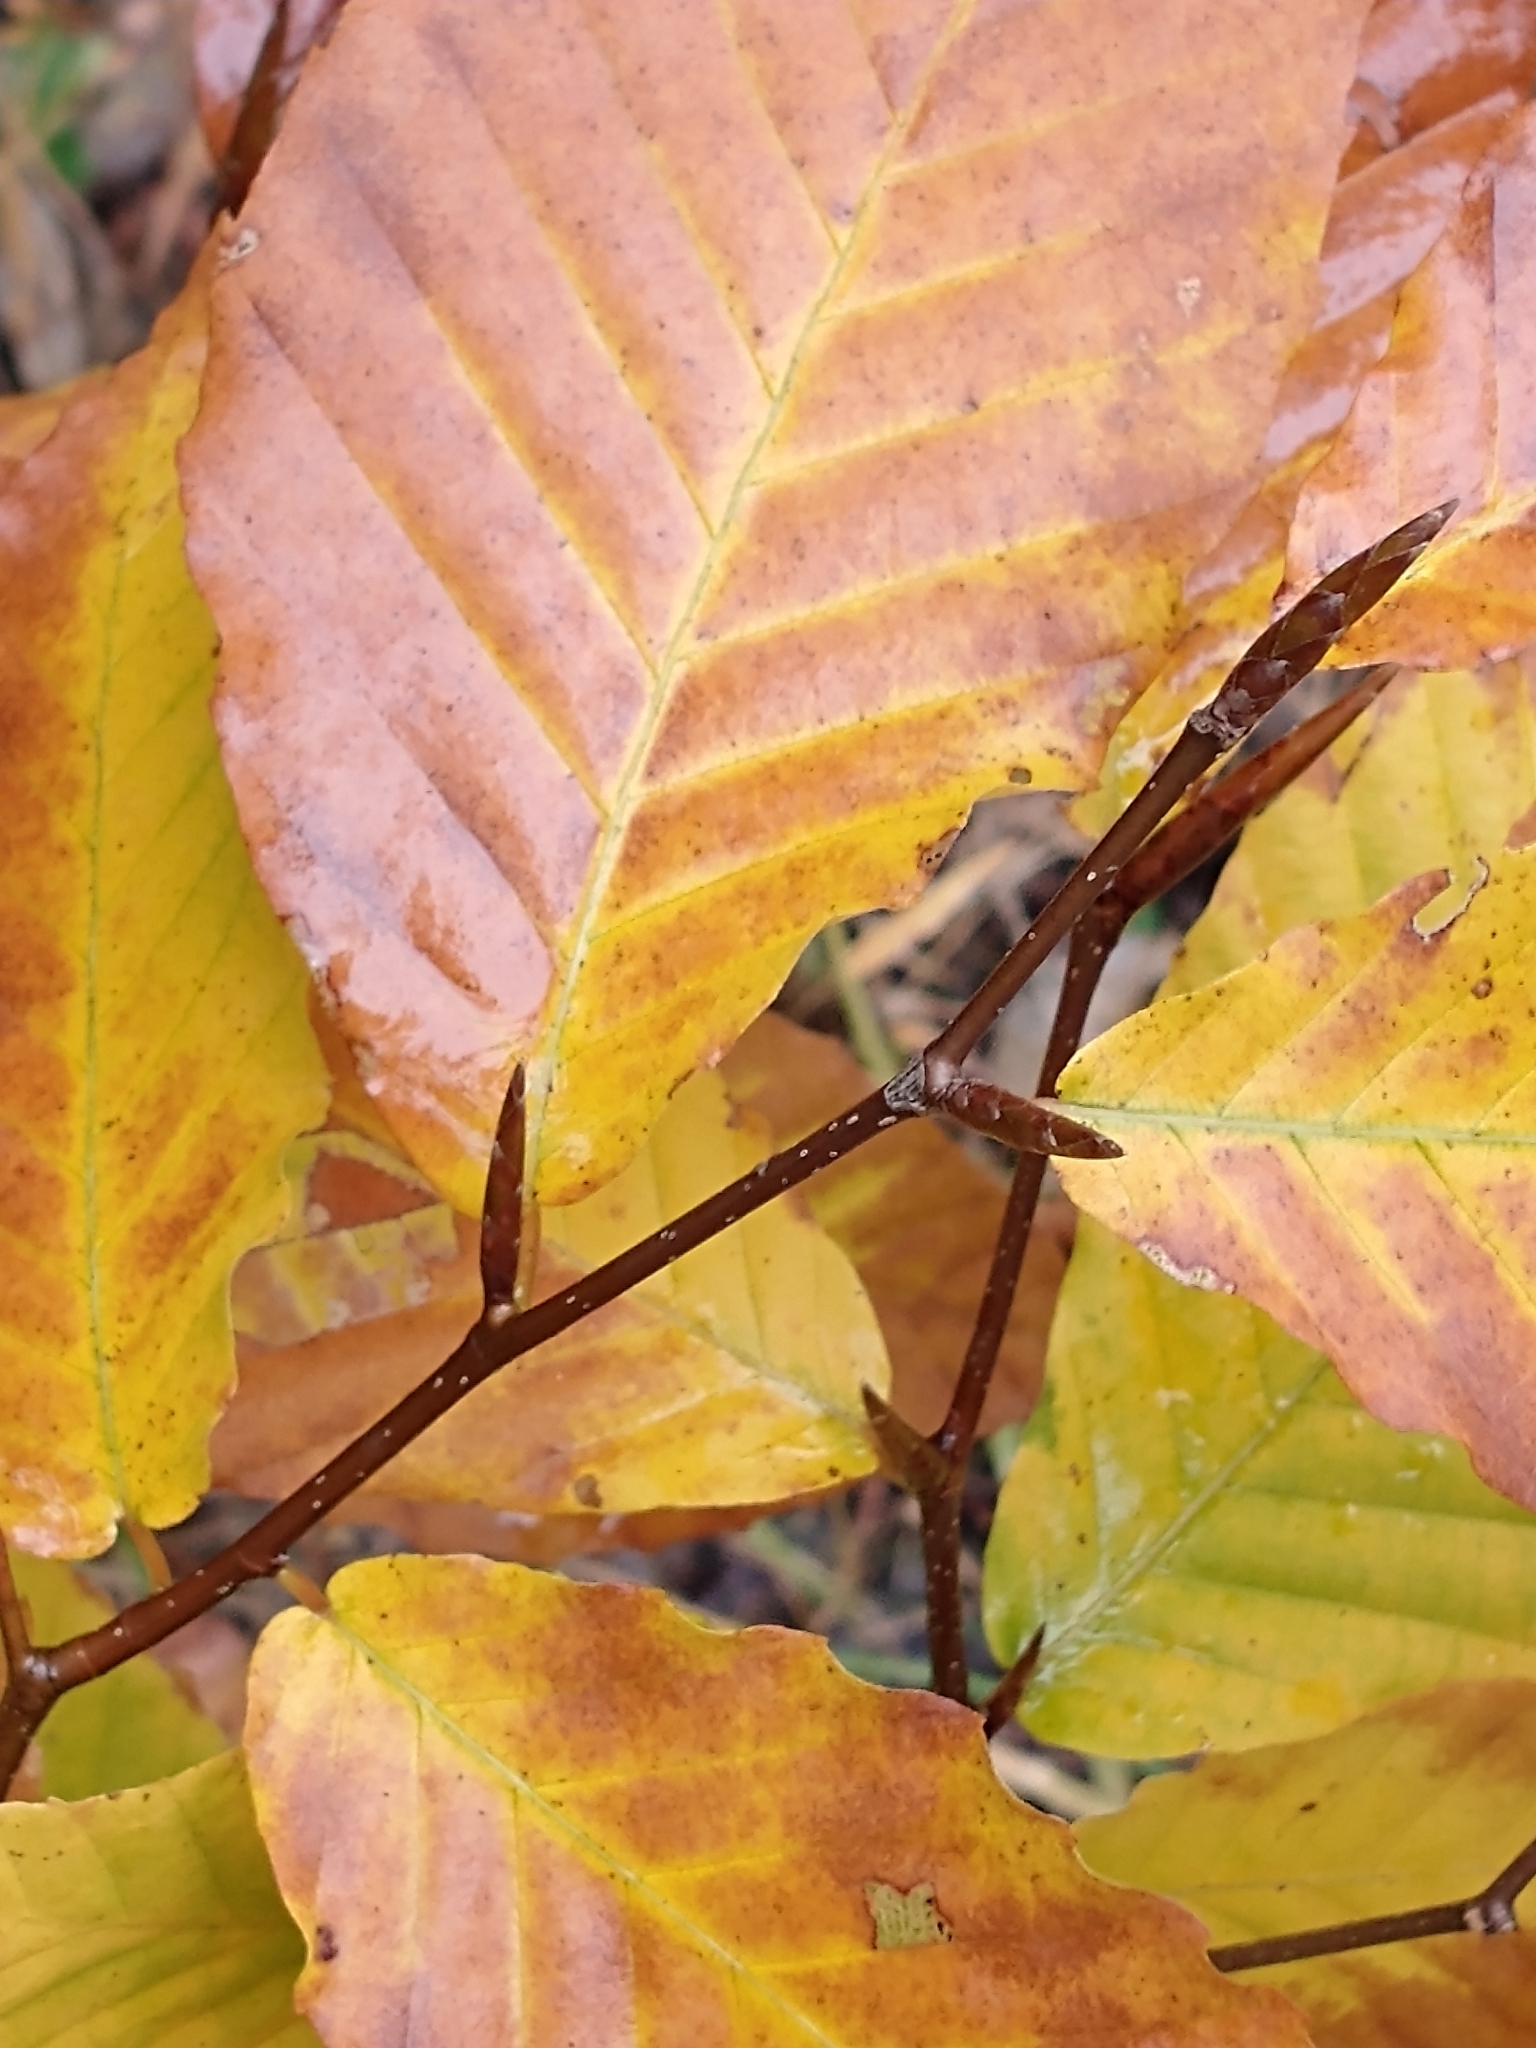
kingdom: Plantae
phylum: Tracheophyta
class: Magnoliopsida
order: Fagales
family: Fagaceae
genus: Fagus
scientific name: Fagus grandifolia
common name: American beech
